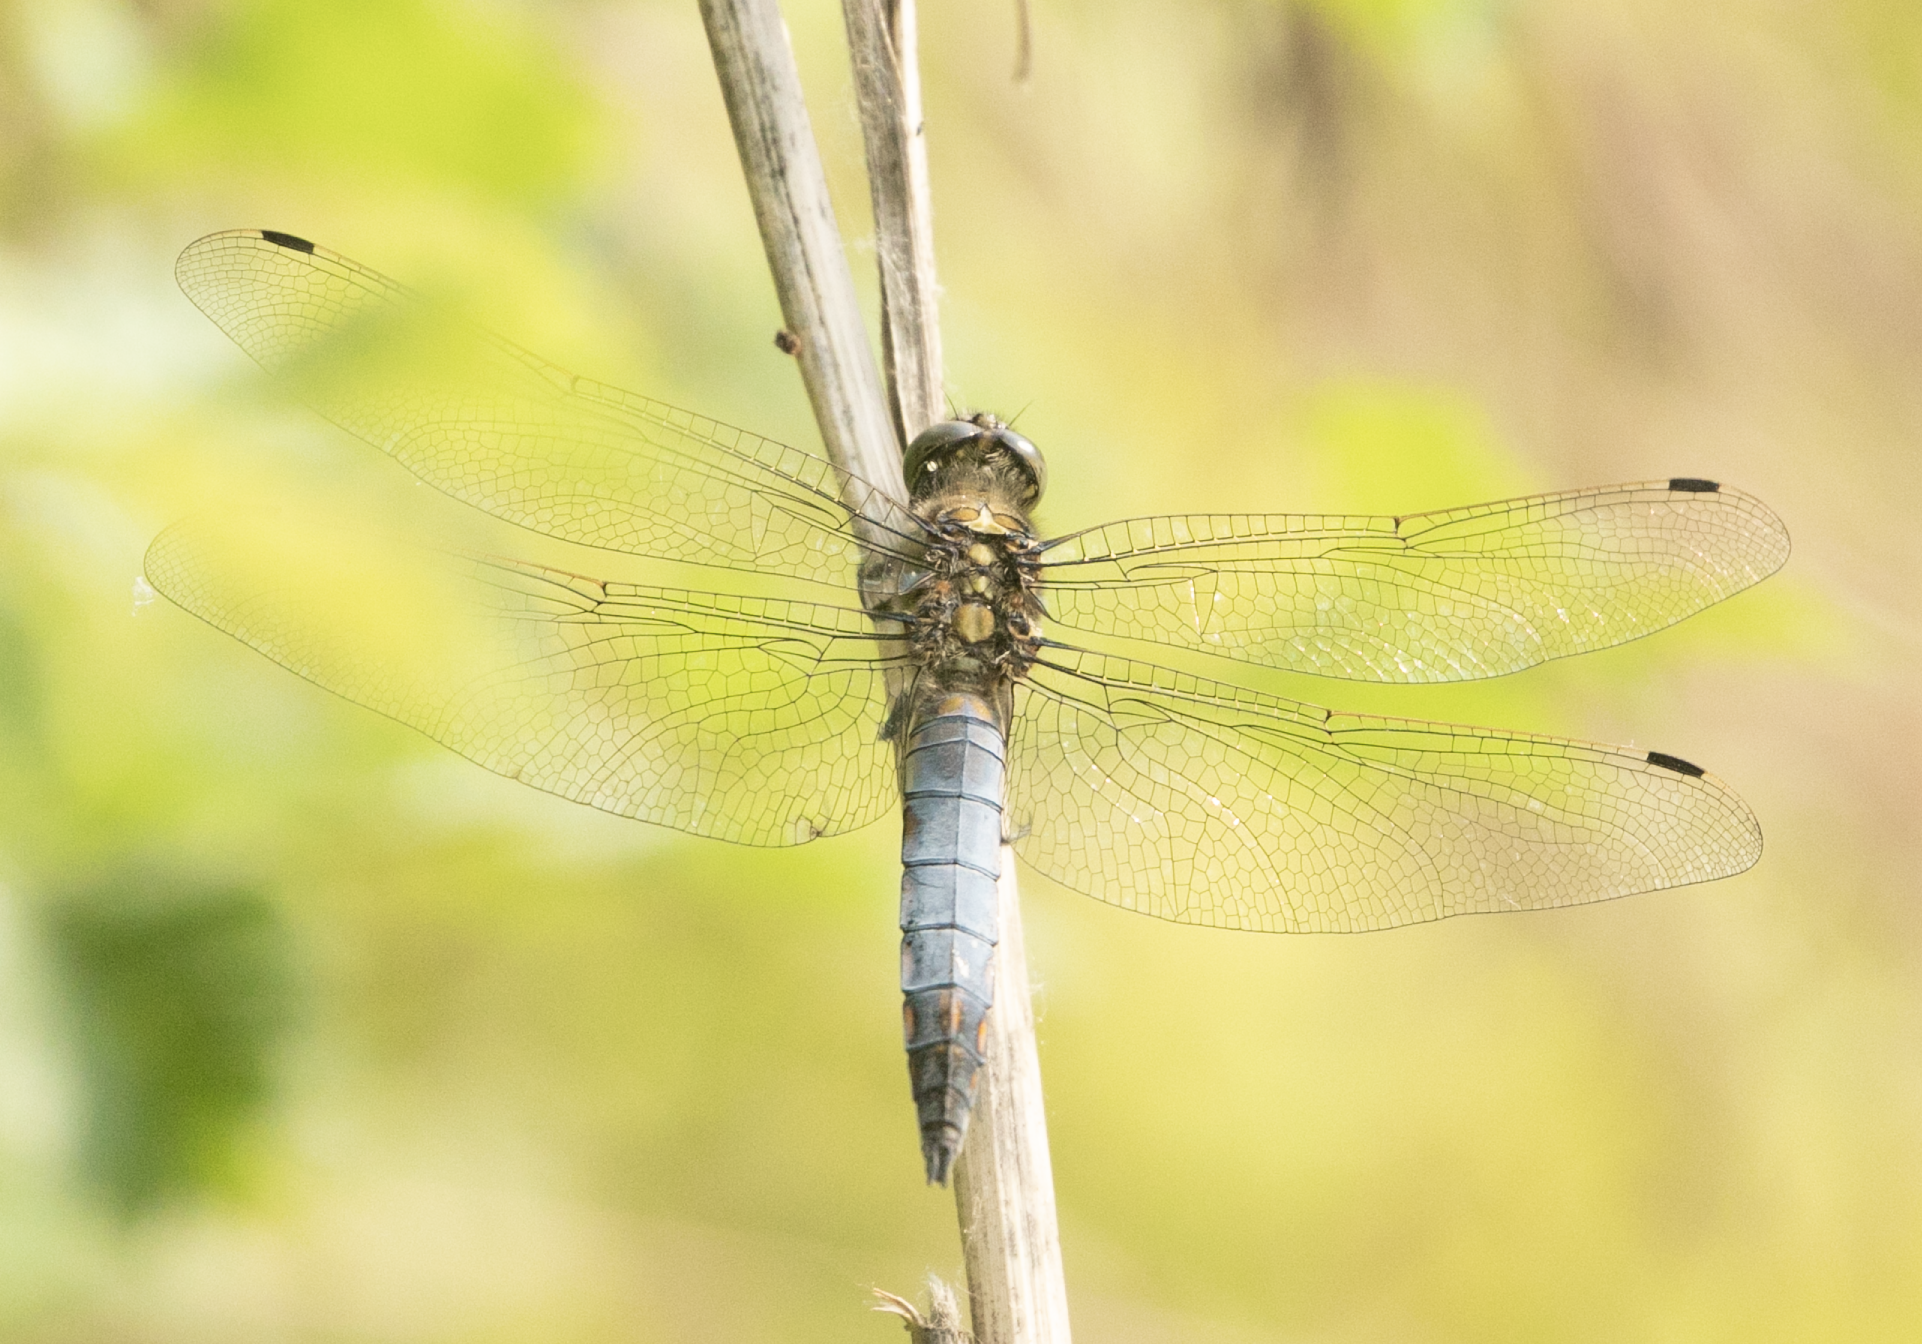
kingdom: Animalia
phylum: Arthropoda
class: Insecta
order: Odonata
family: Libellulidae
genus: Orthetrum
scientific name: Orthetrum cancellatum
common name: Black-tailed skimmer
